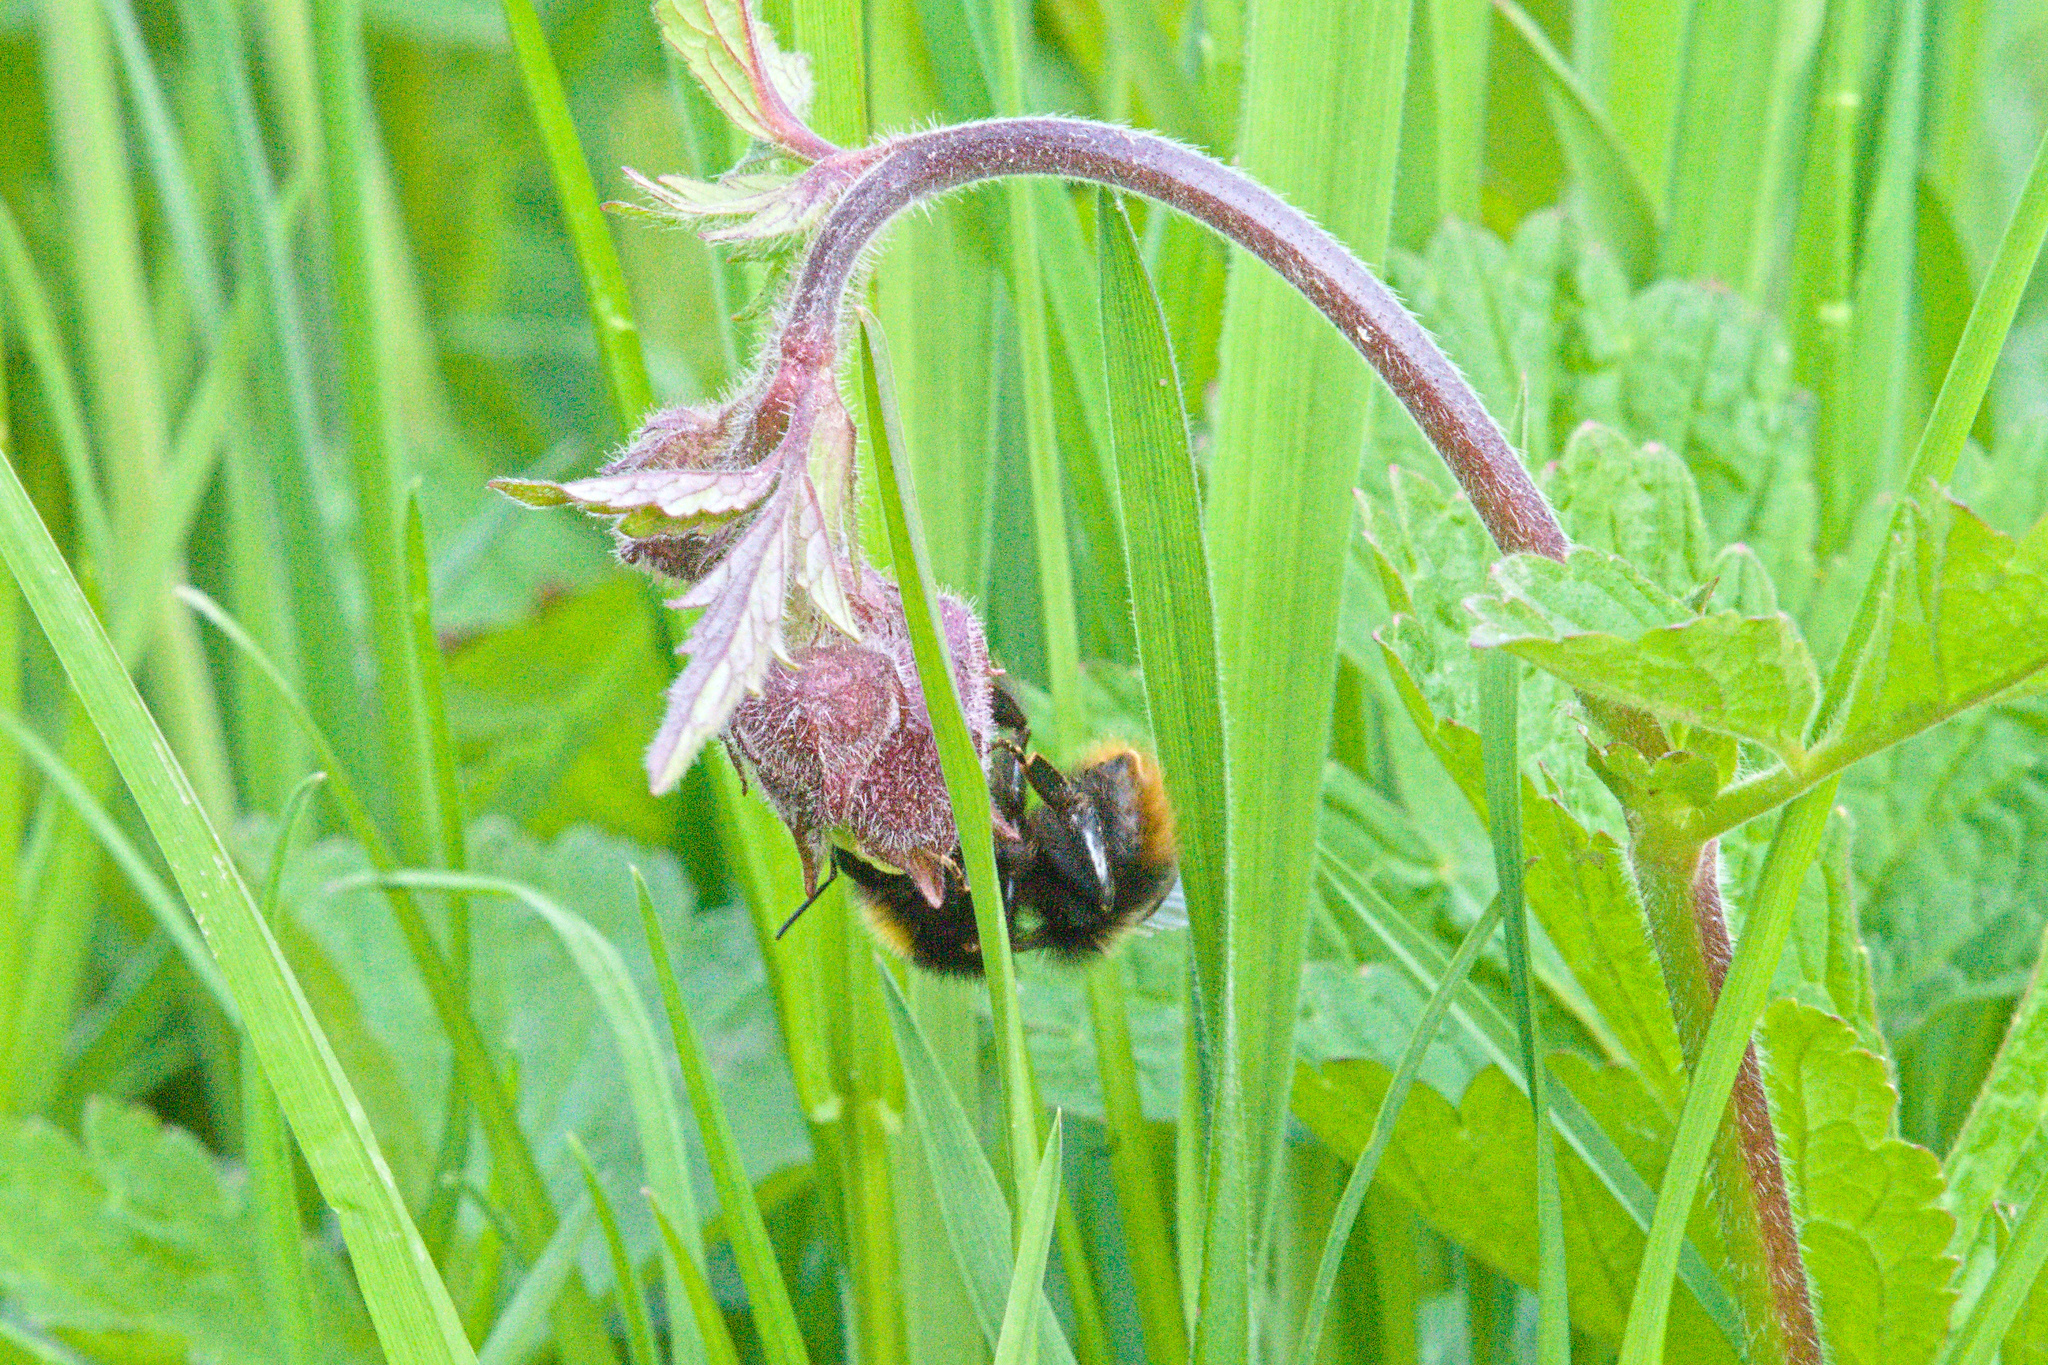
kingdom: Plantae
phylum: Tracheophyta
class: Magnoliopsida
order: Rosales
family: Rosaceae
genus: Geum
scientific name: Geum rivale
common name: Water avens
